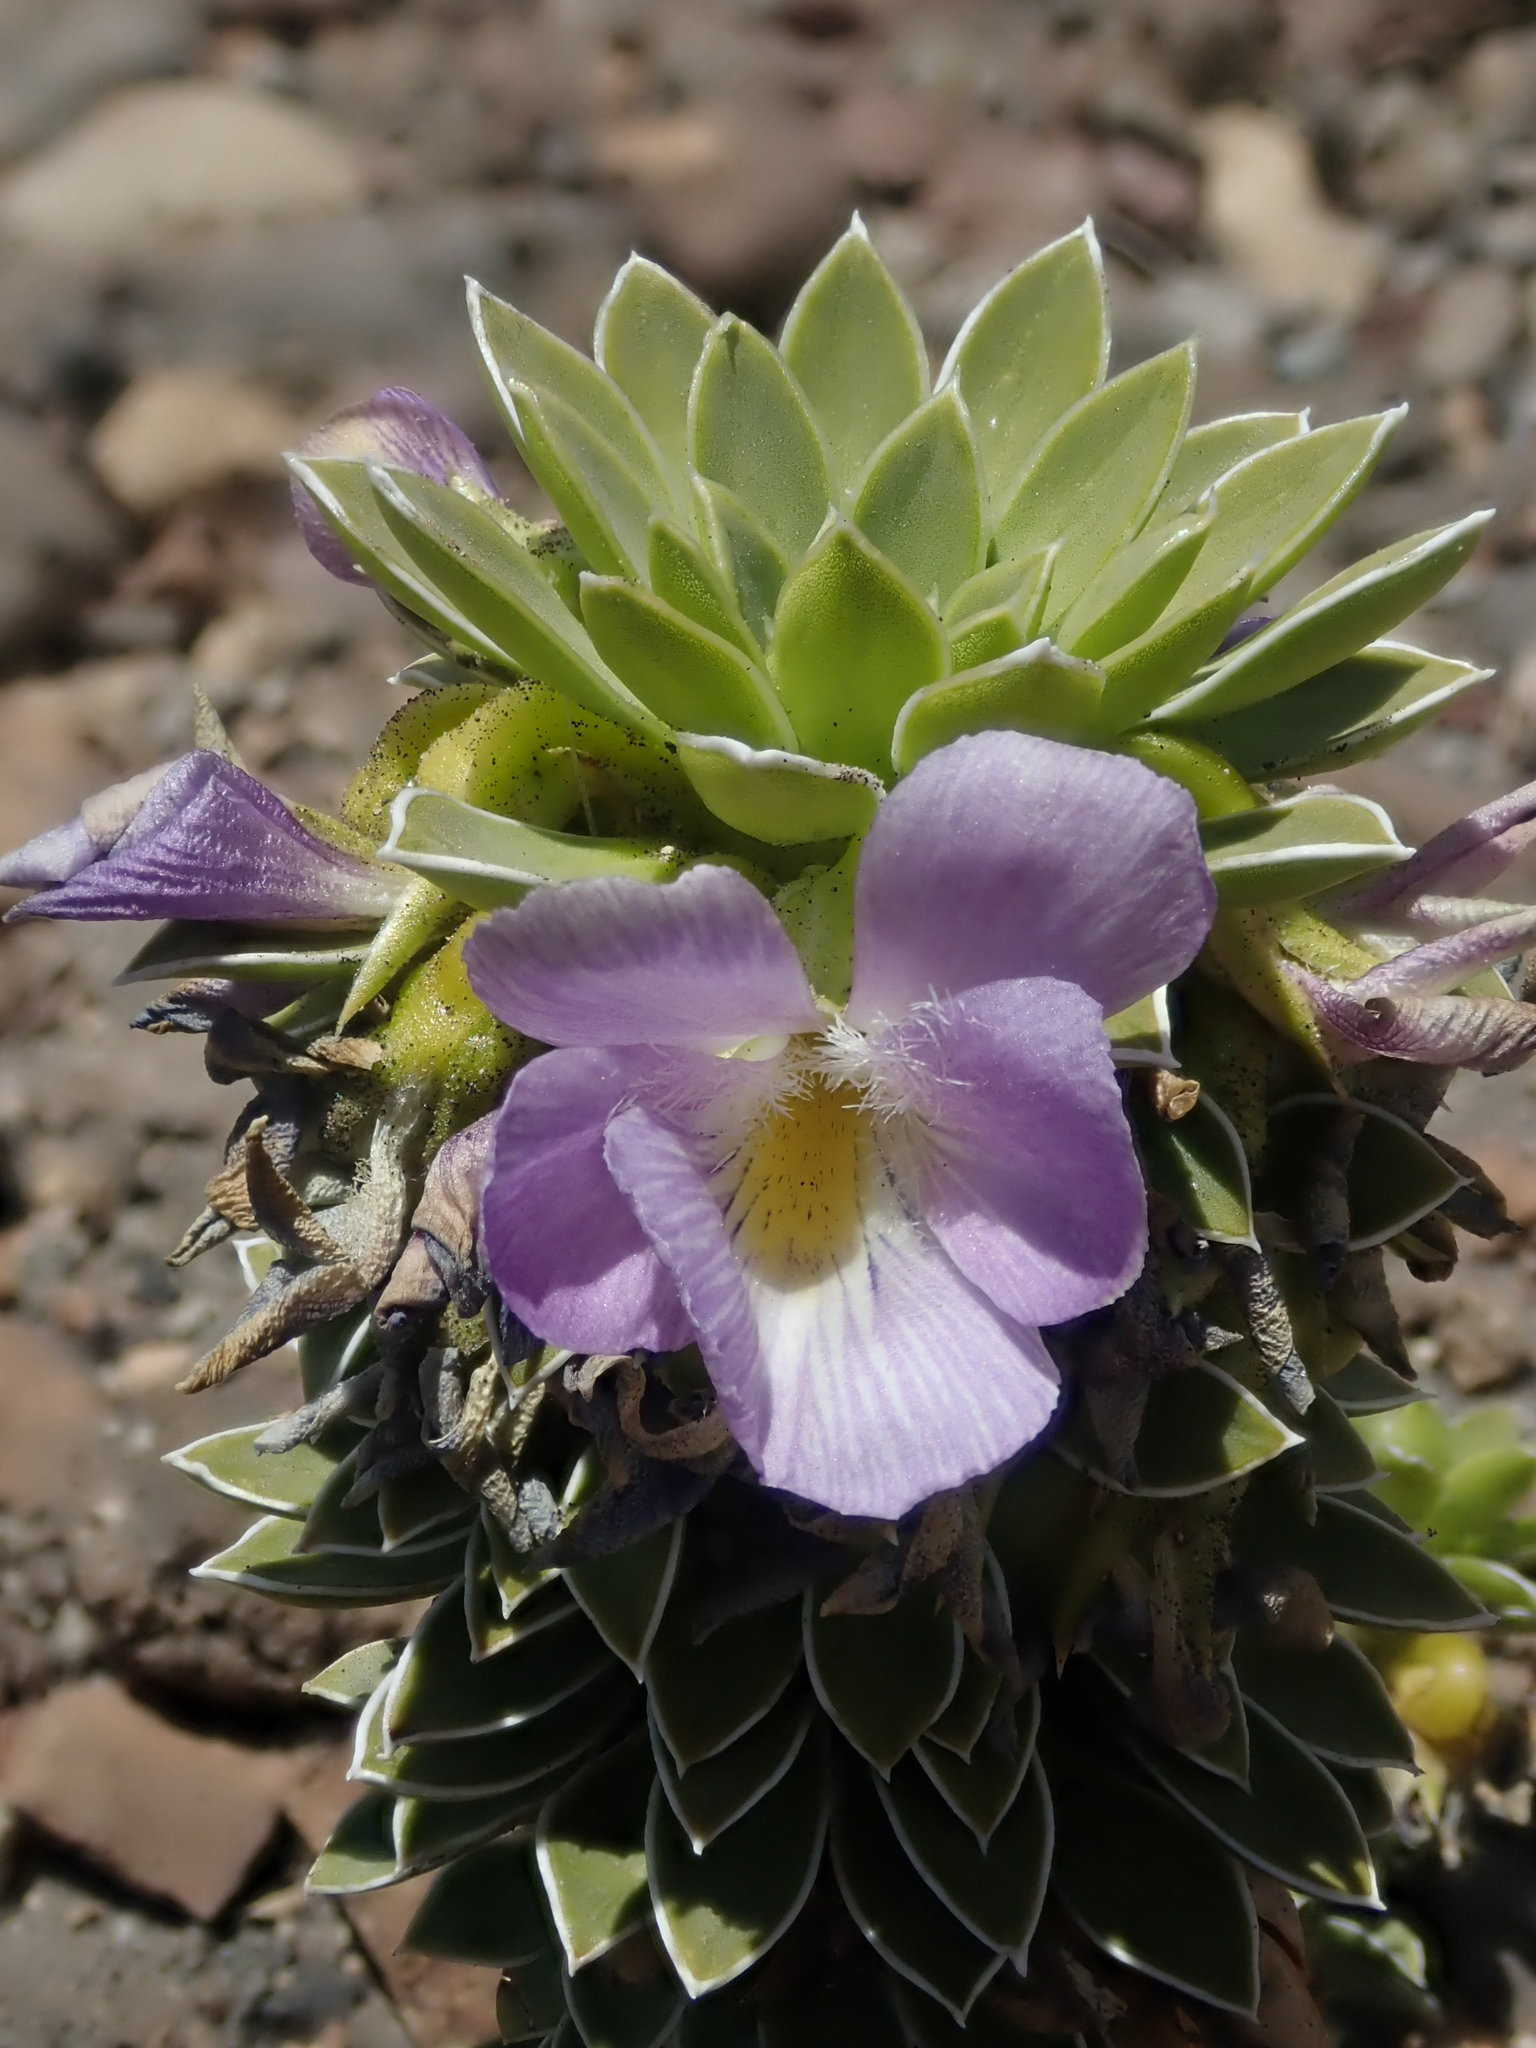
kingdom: Plantae
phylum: Tracheophyta
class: Magnoliopsida
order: Malpighiales
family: Violaceae
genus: Viola
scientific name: Viola cotyledon
